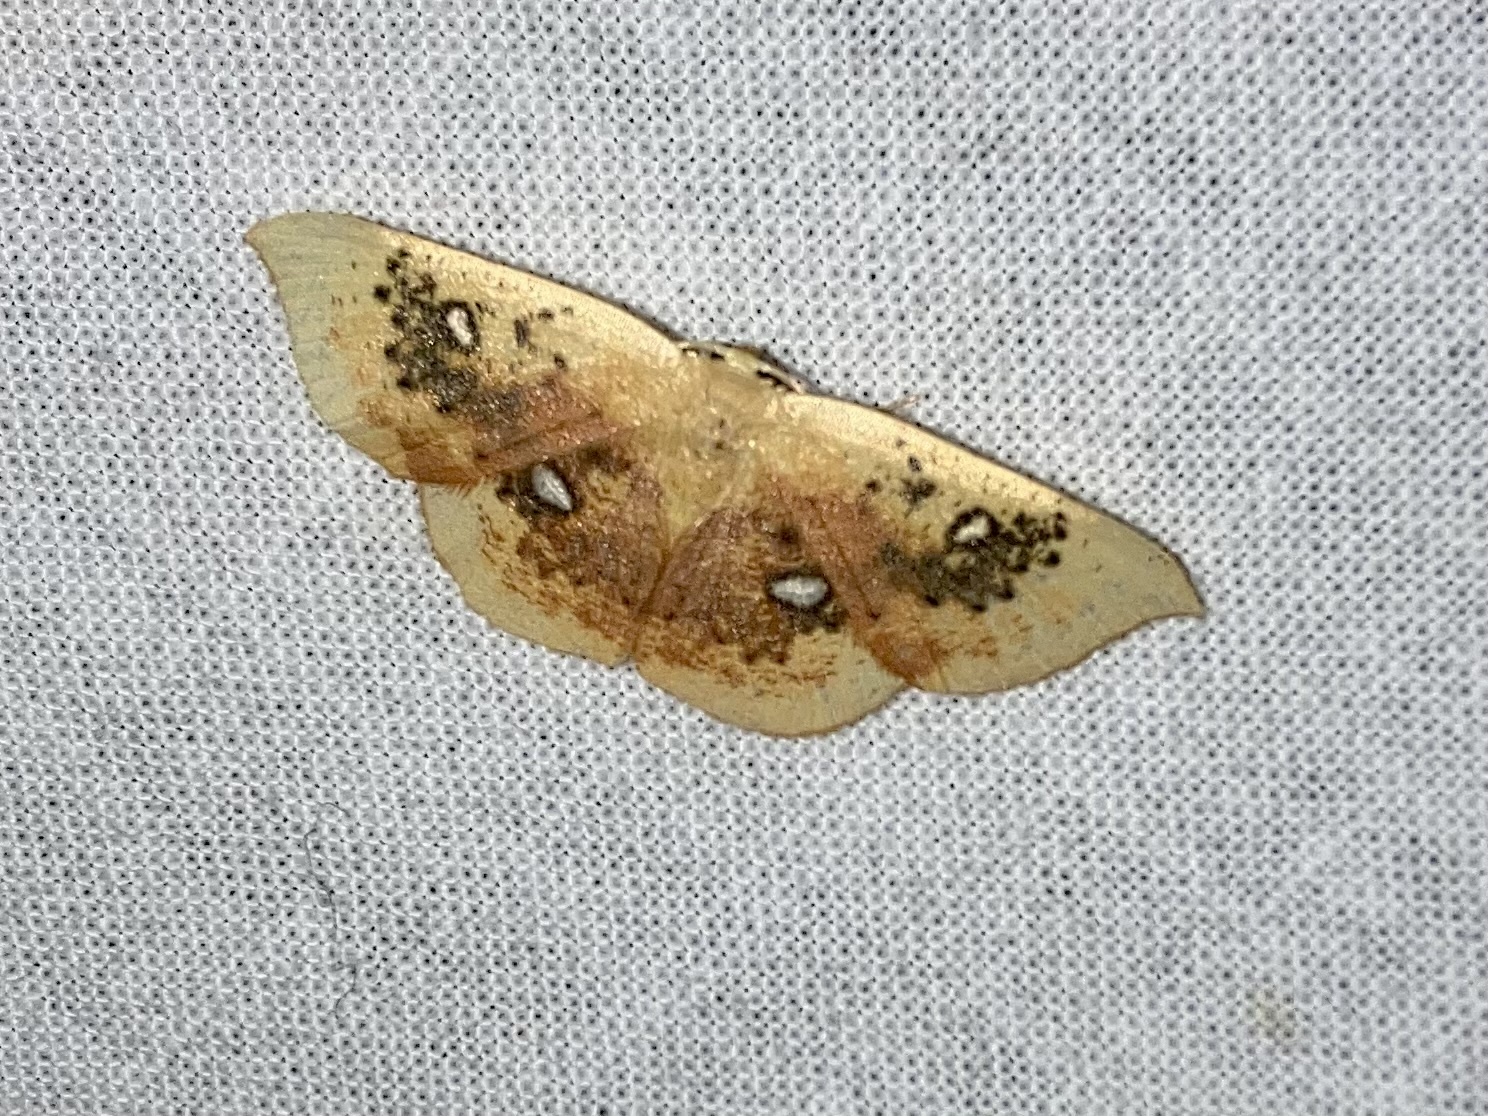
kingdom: Animalia
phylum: Arthropoda
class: Insecta
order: Lepidoptera
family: Geometridae
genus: Cyclophora
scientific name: Cyclophora albiocellaria
